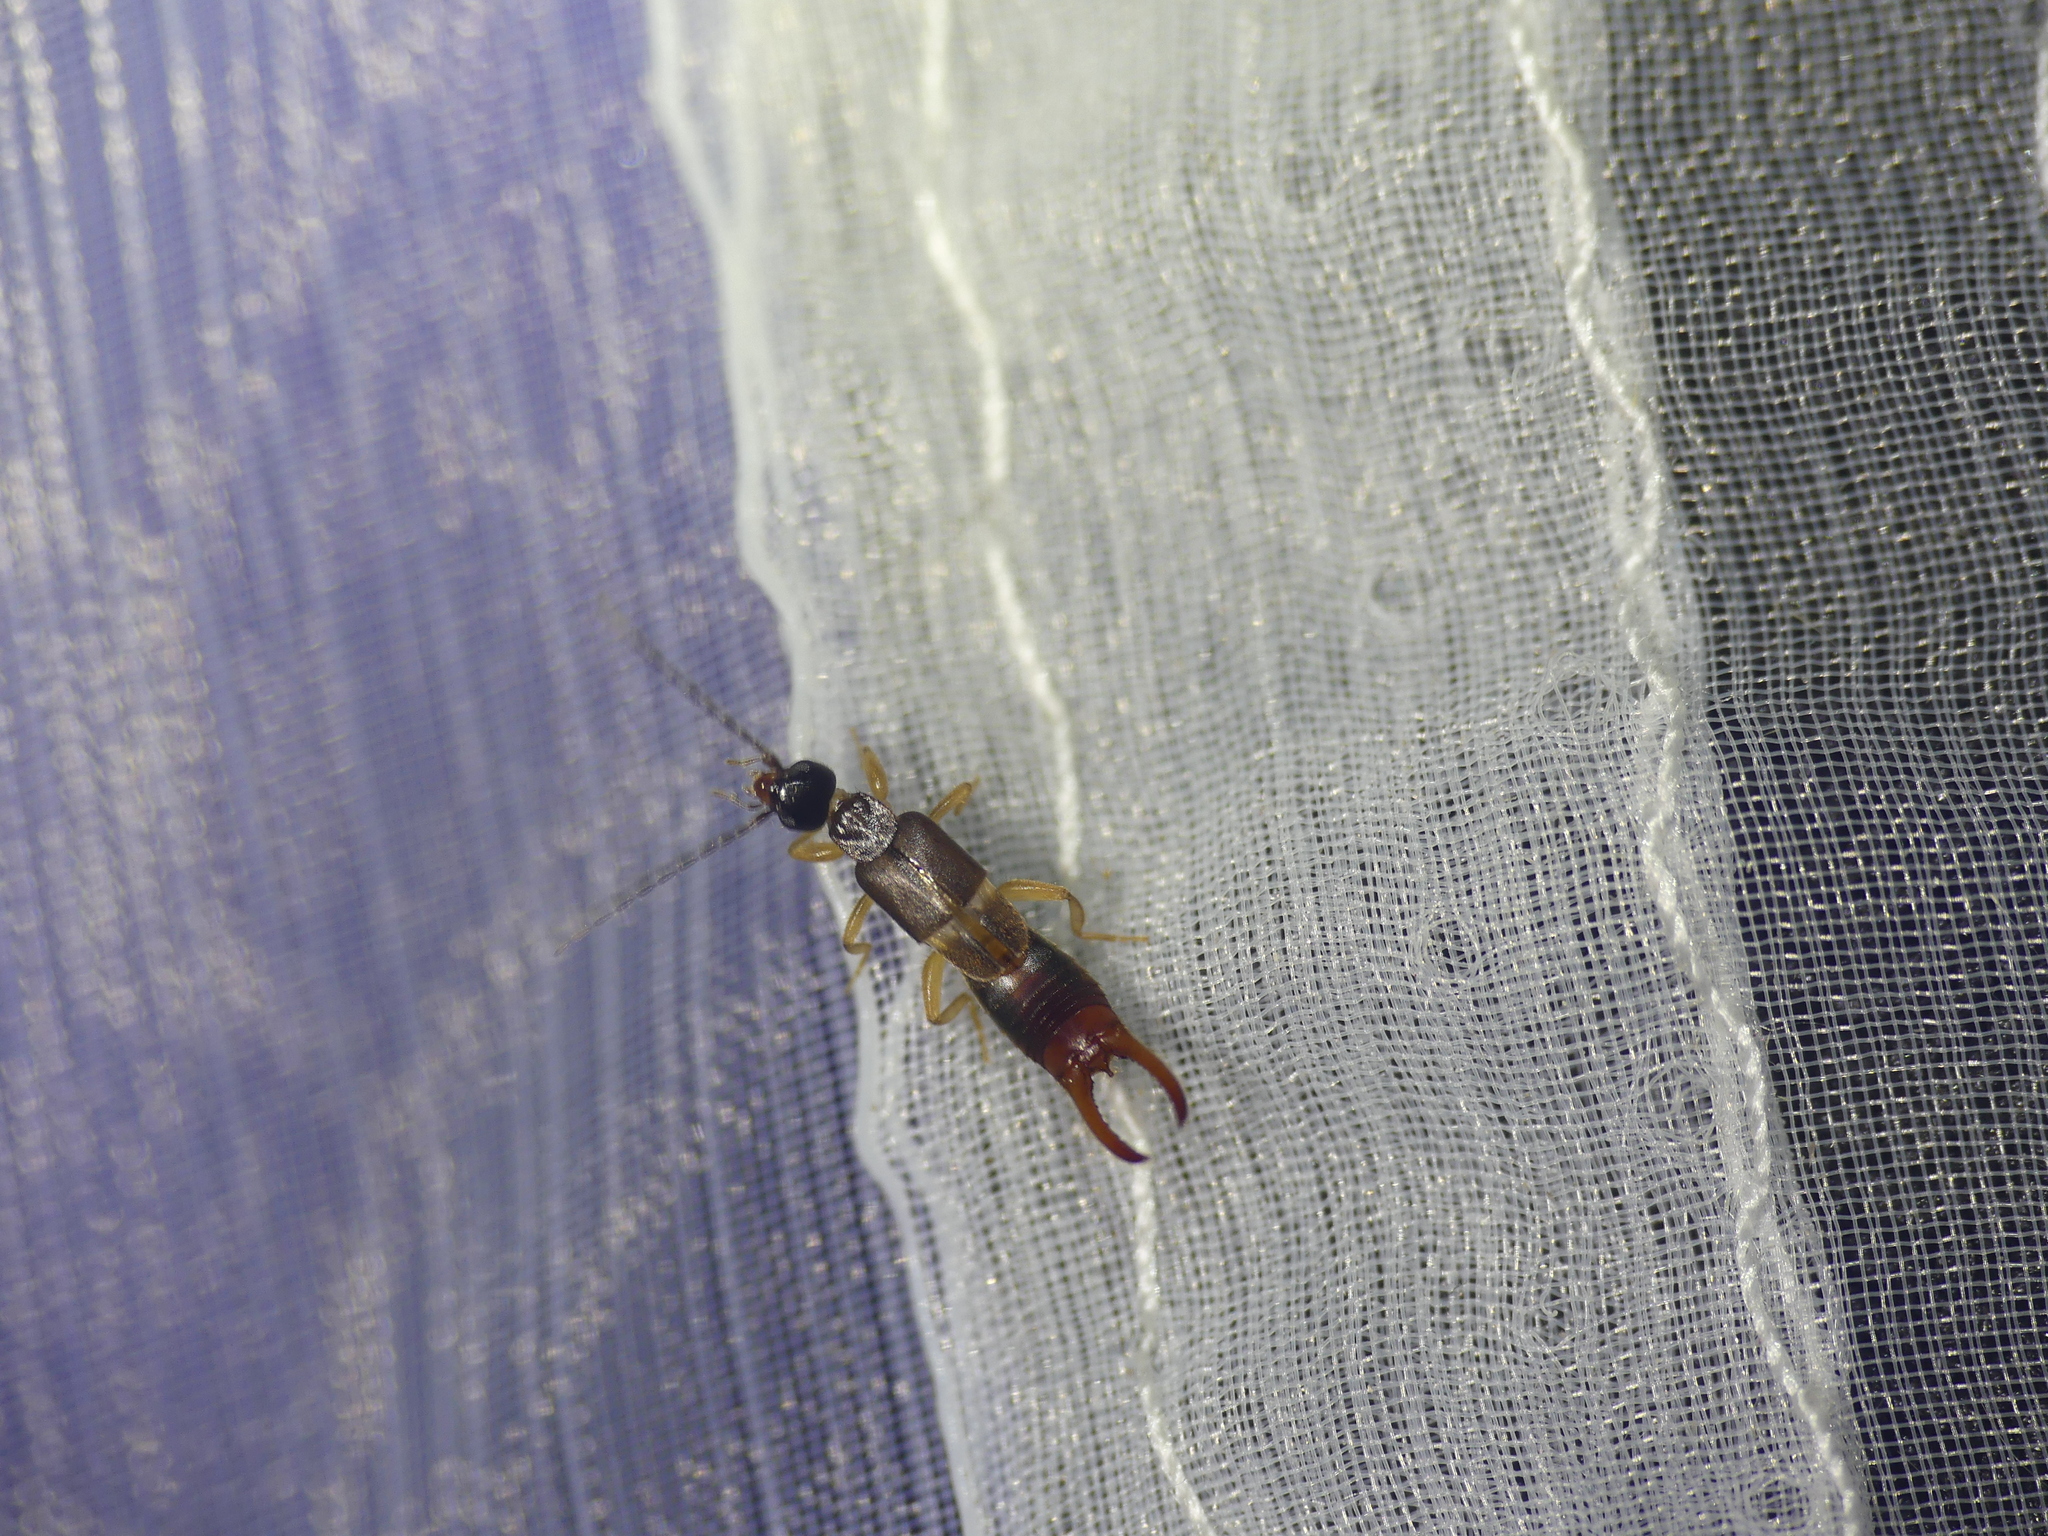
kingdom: Animalia
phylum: Arthropoda
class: Insecta
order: Dermaptera
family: Spongiphoridae
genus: Labia
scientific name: Labia minor
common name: Lesser earwig
